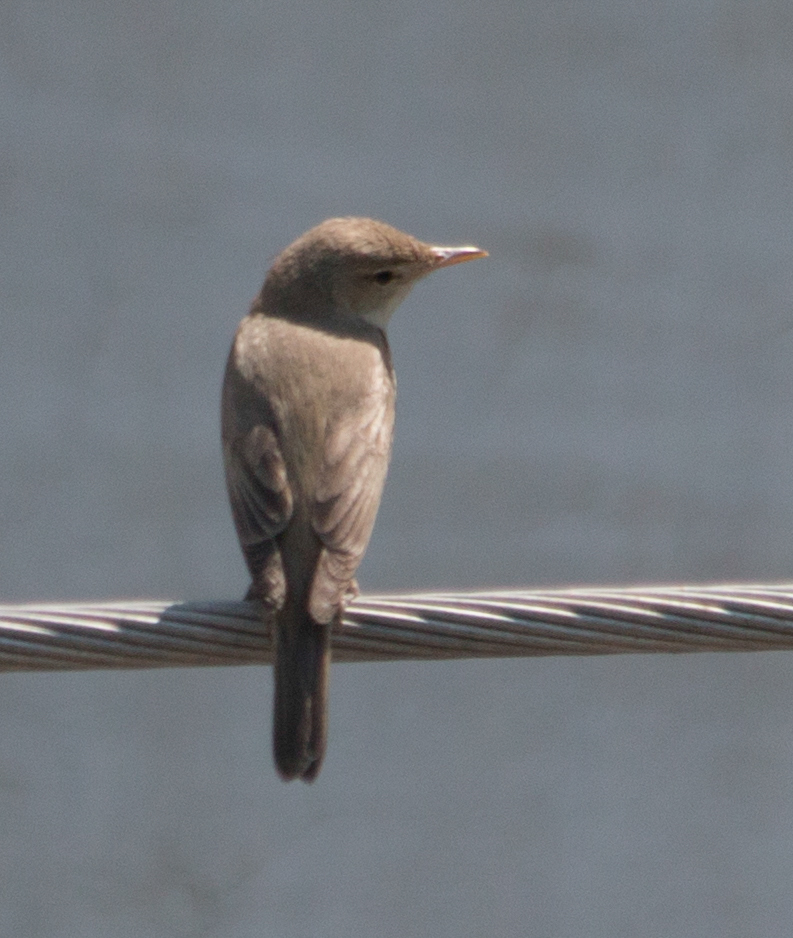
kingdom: Animalia
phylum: Chordata
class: Aves
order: Passeriformes
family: Acrocephalidae
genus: Iduna
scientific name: Iduna pallida
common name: Eastern olivaceous warbler
